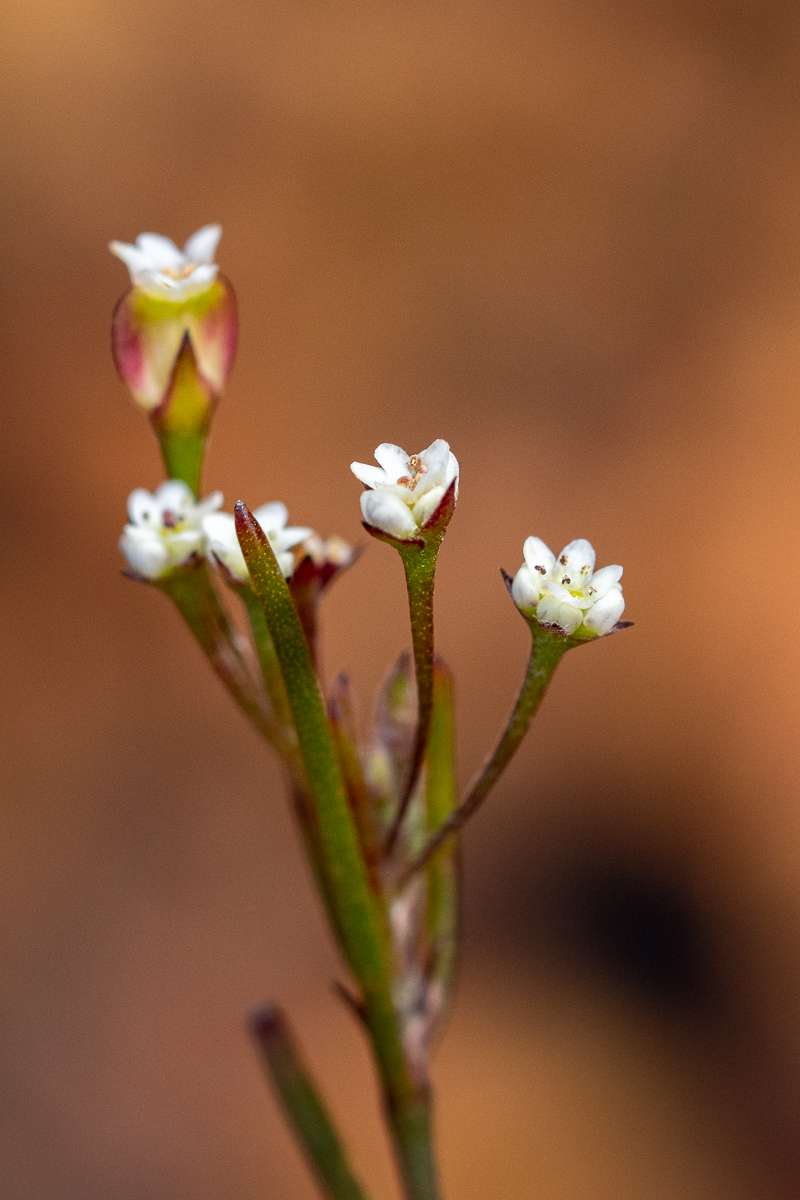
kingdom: Plantae
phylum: Tracheophyta
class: Magnoliopsida
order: Apiales
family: Apiaceae
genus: Centella
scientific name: Centella macrocarpa
